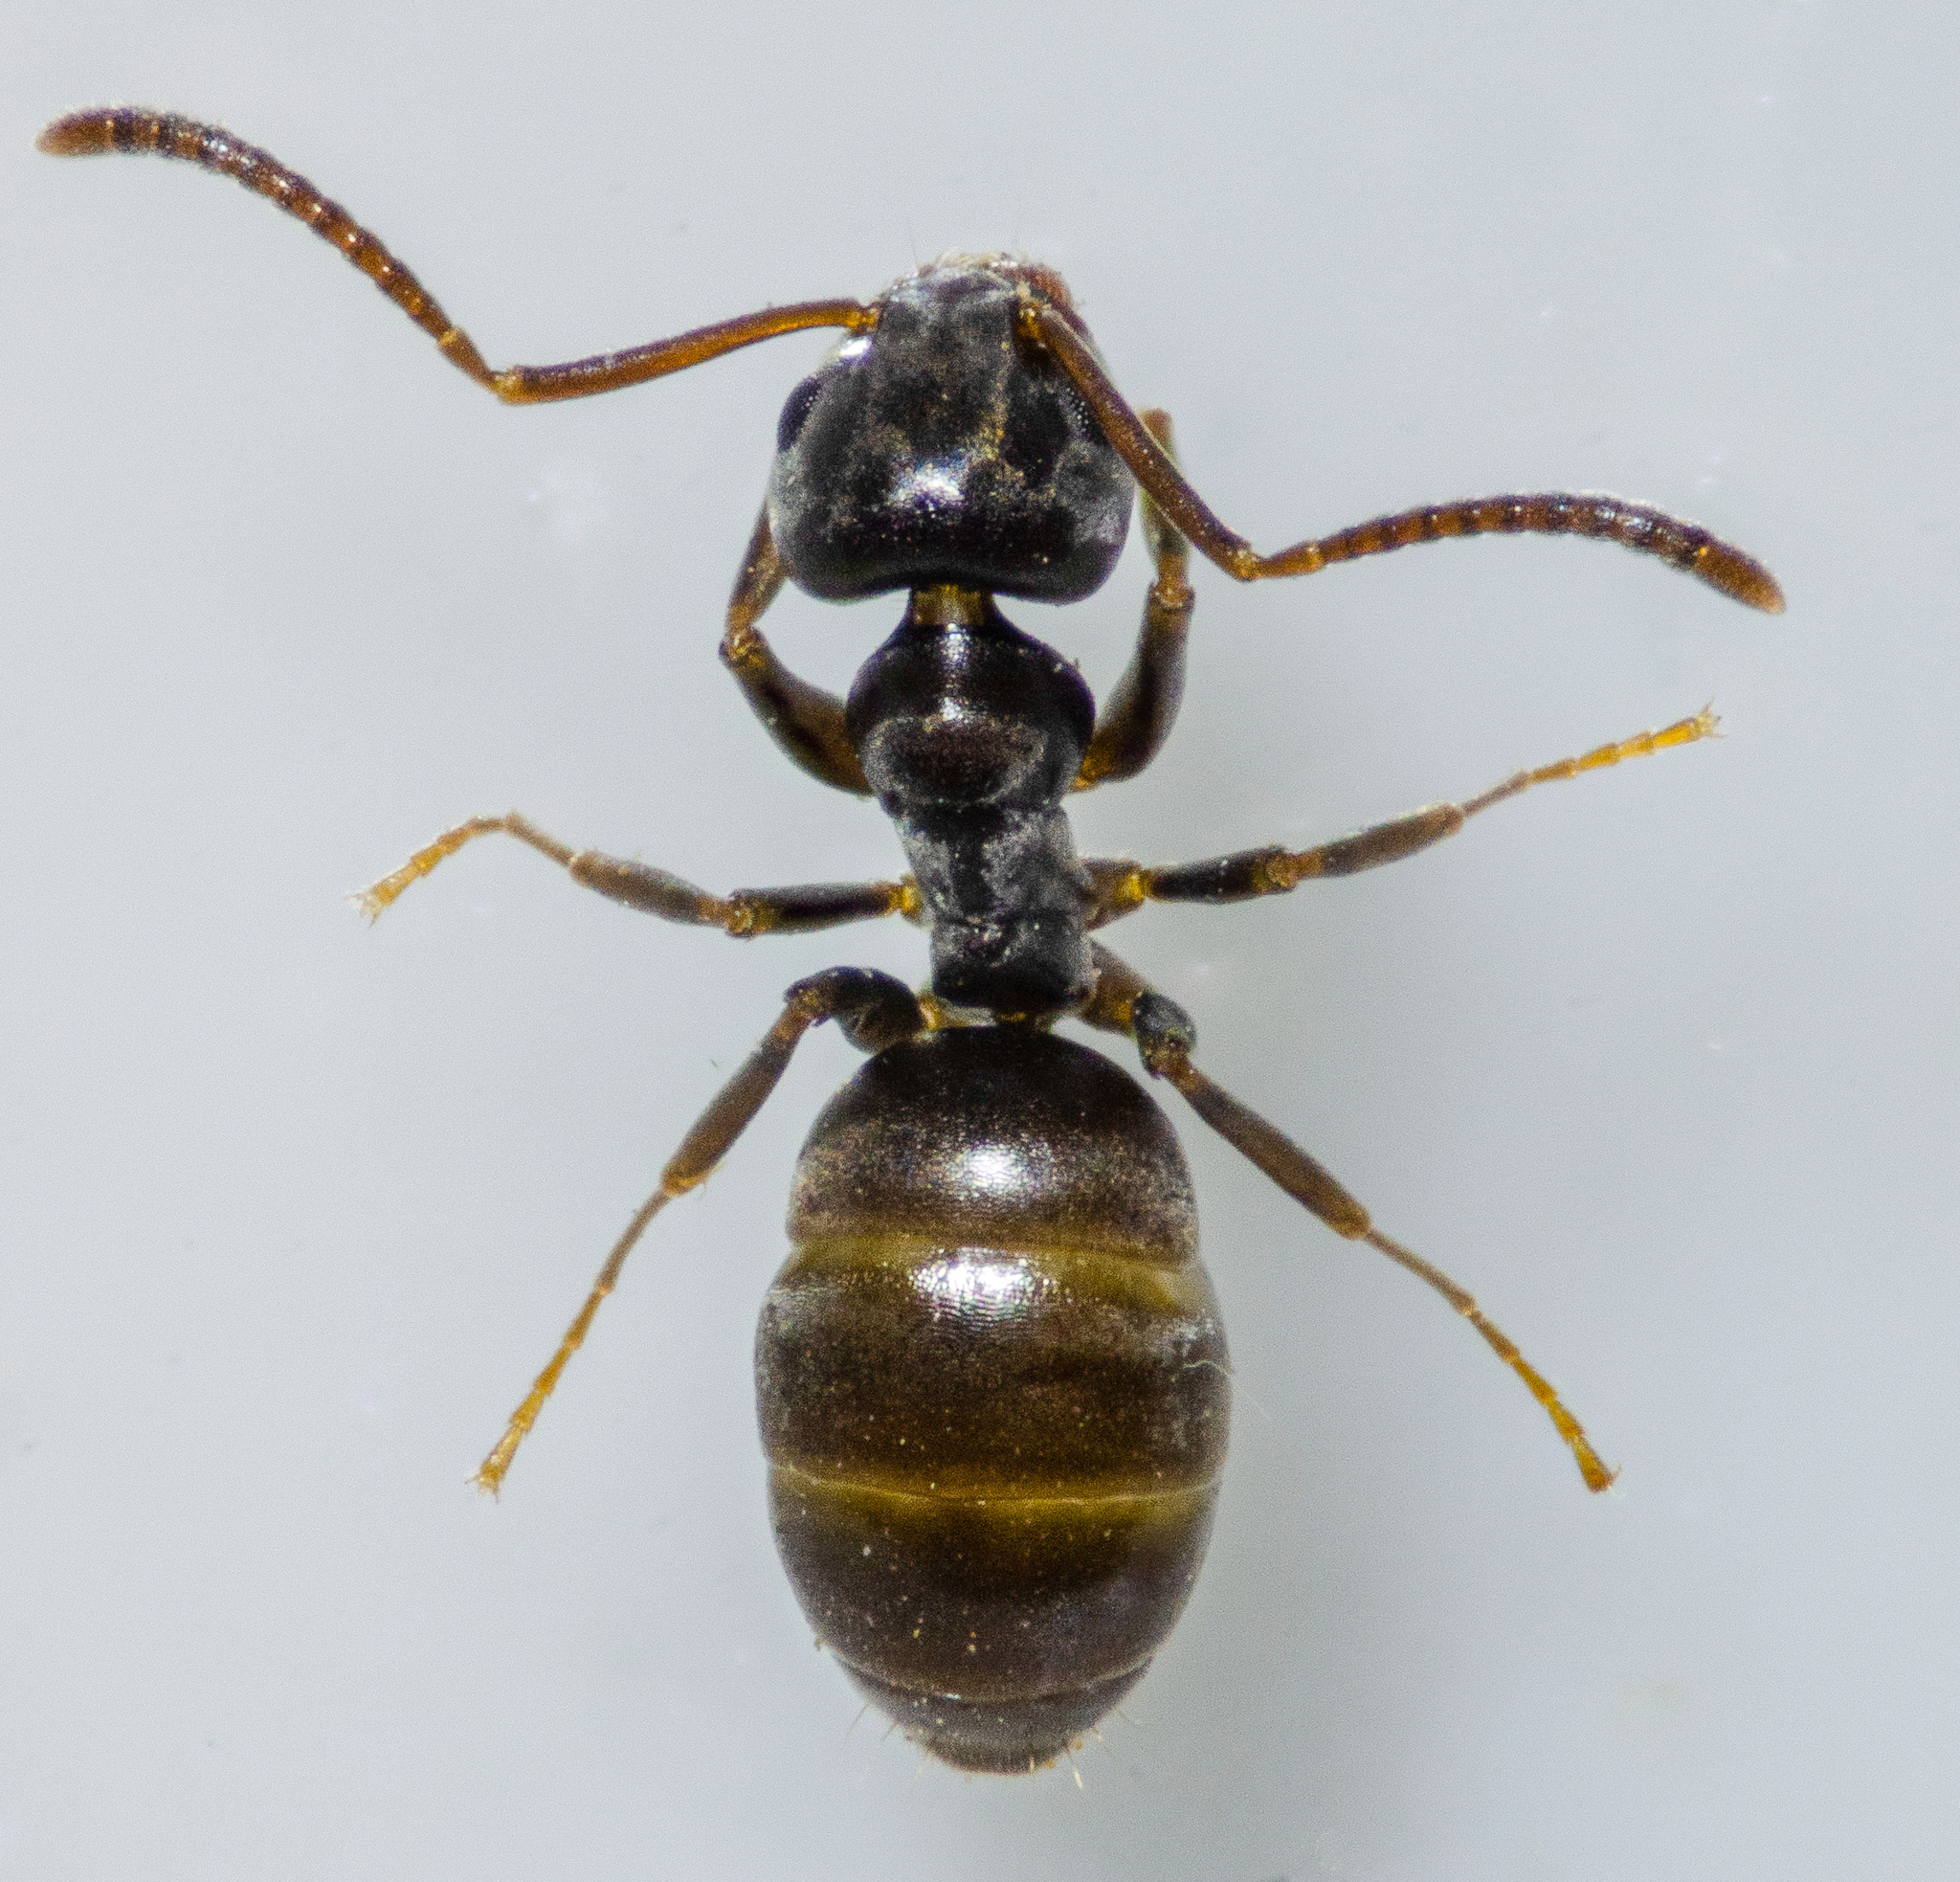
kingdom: Animalia
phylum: Arthropoda
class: Insecta
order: Hymenoptera
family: Formicidae
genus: Tapinoma
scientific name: Tapinoma sessile
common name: Odorous house ant
